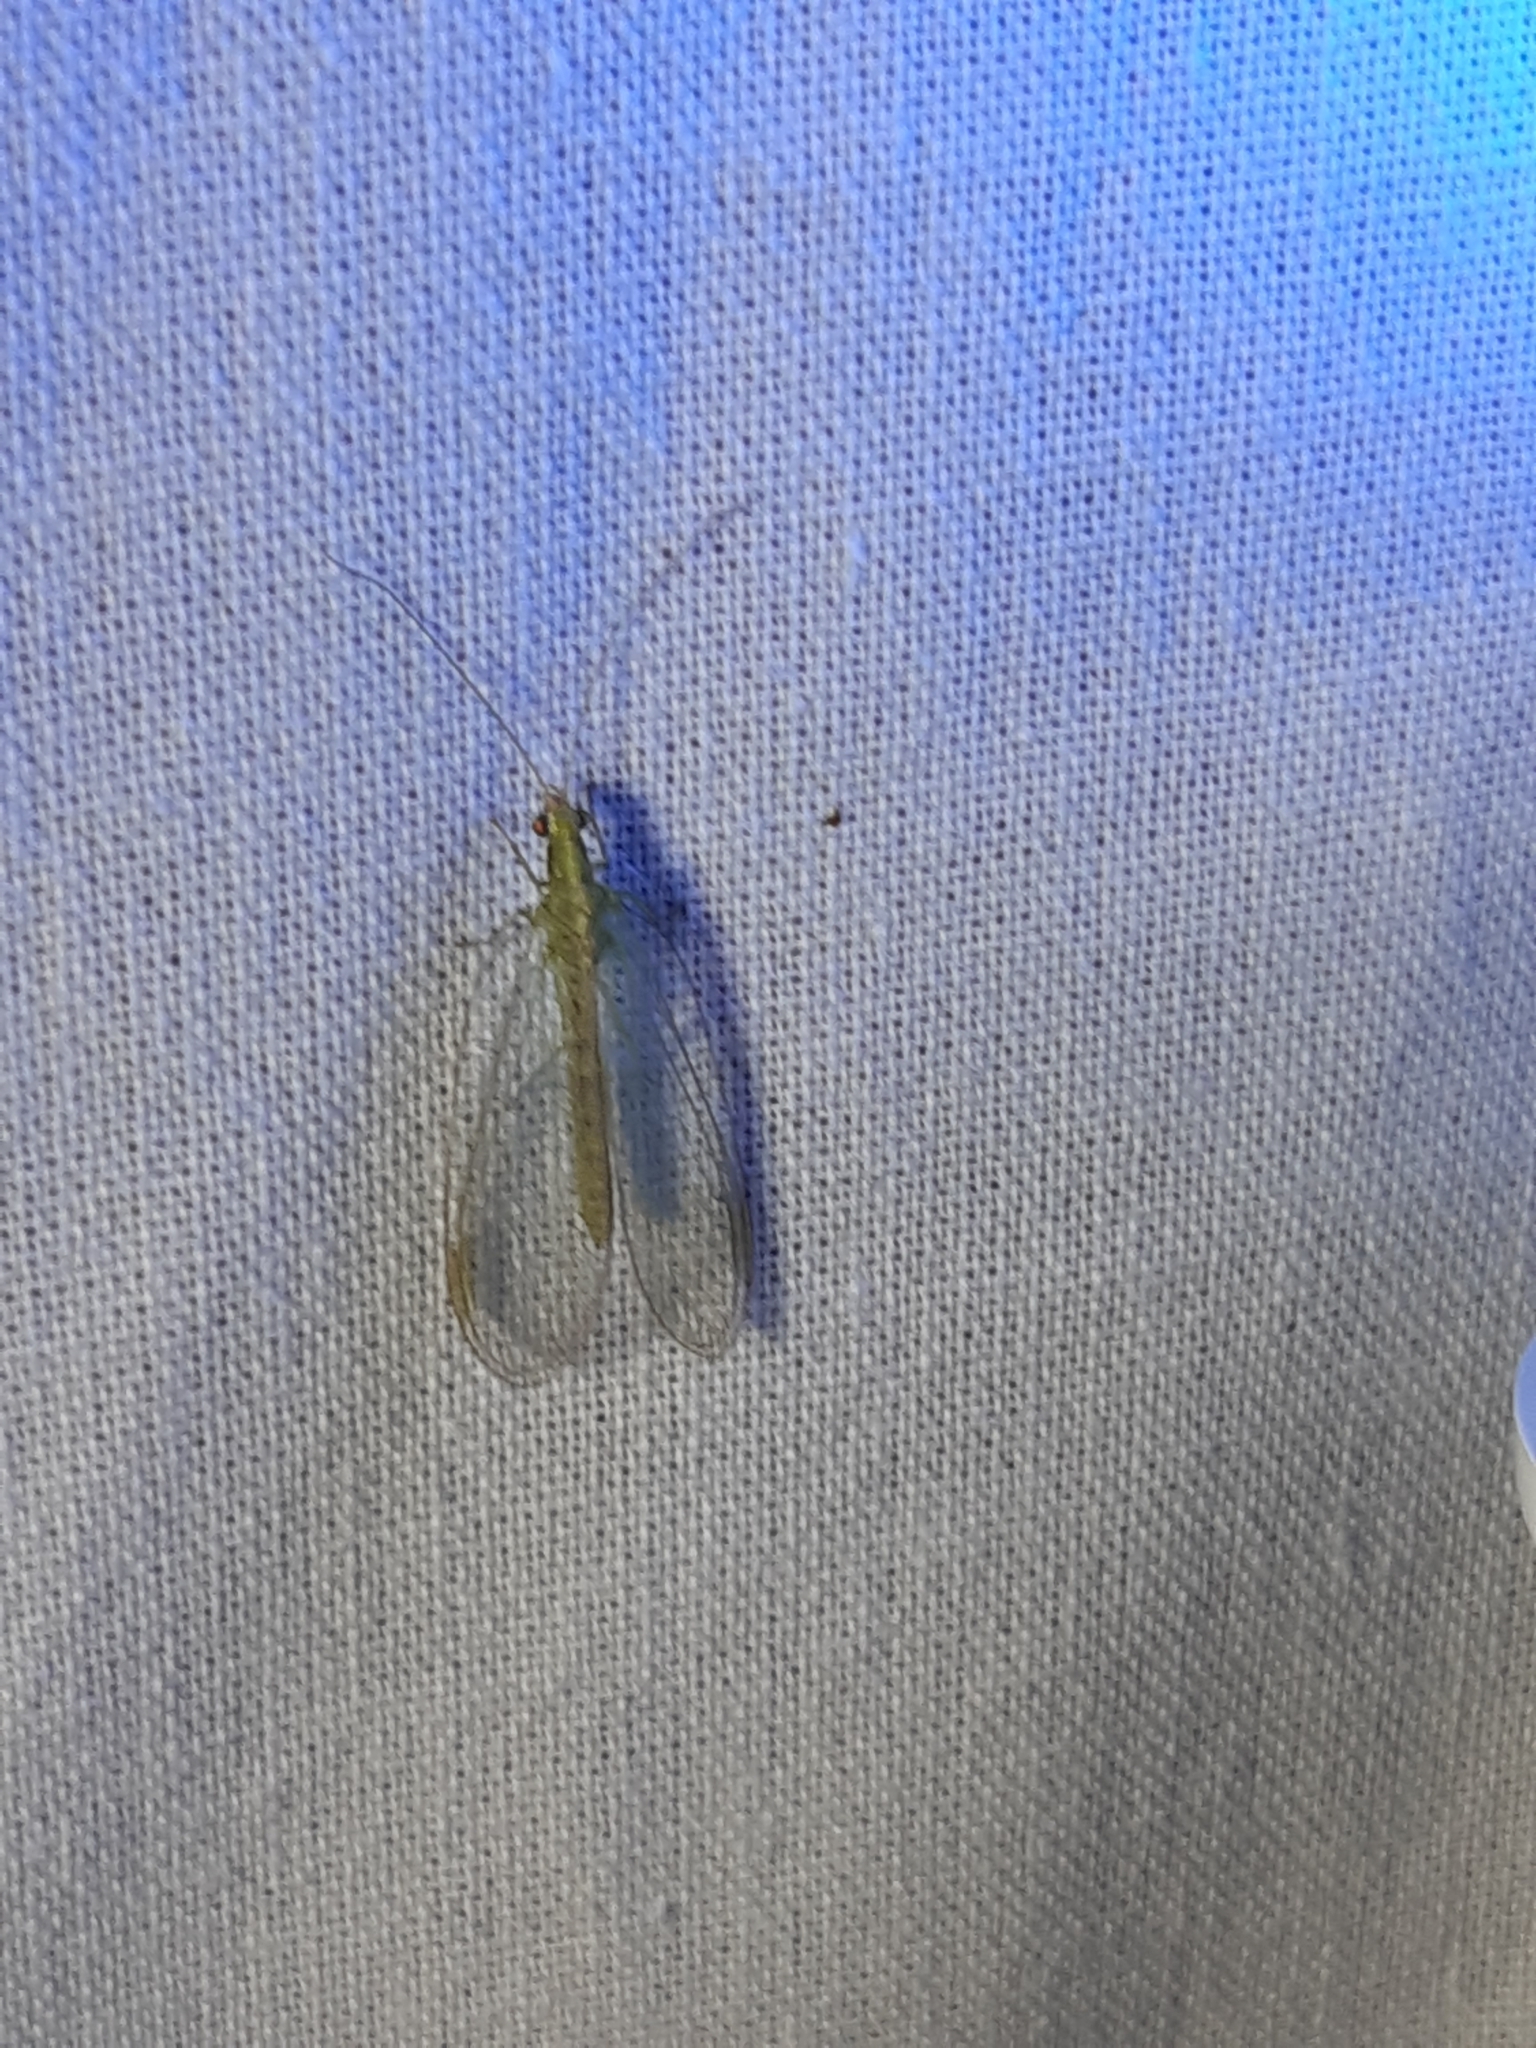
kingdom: Animalia
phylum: Arthropoda
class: Insecta
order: Neuroptera
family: Chrysopidae
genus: Chrysoperla
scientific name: Chrysoperla
